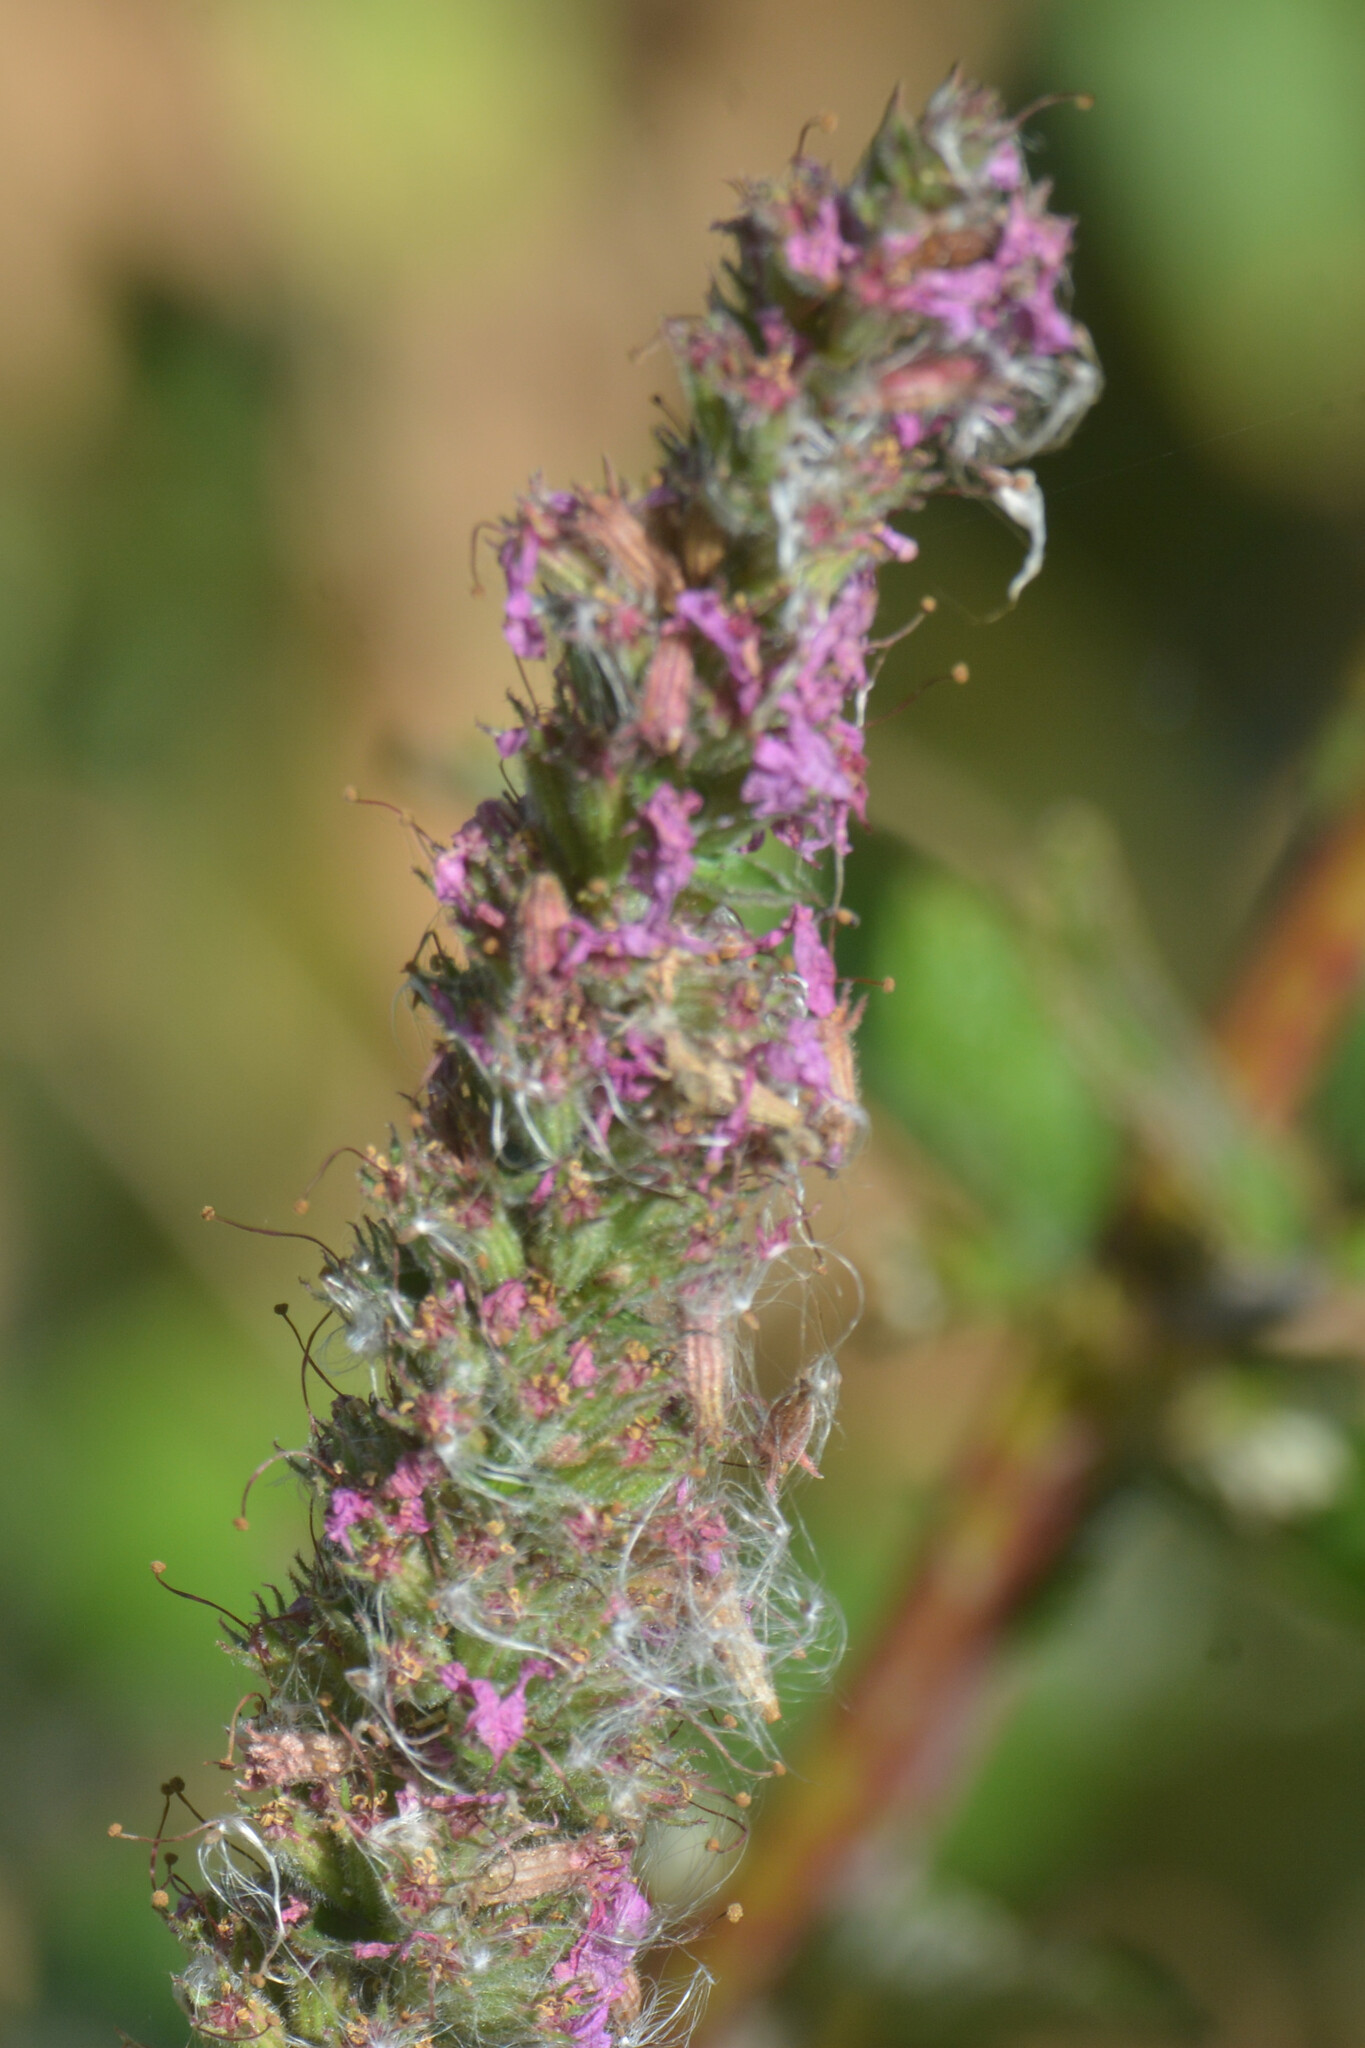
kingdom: Plantae
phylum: Tracheophyta
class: Magnoliopsida
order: Myrtales
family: Lythraceae
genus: Lythrum
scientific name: Lythrum salicaria
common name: Purple loosestrife
